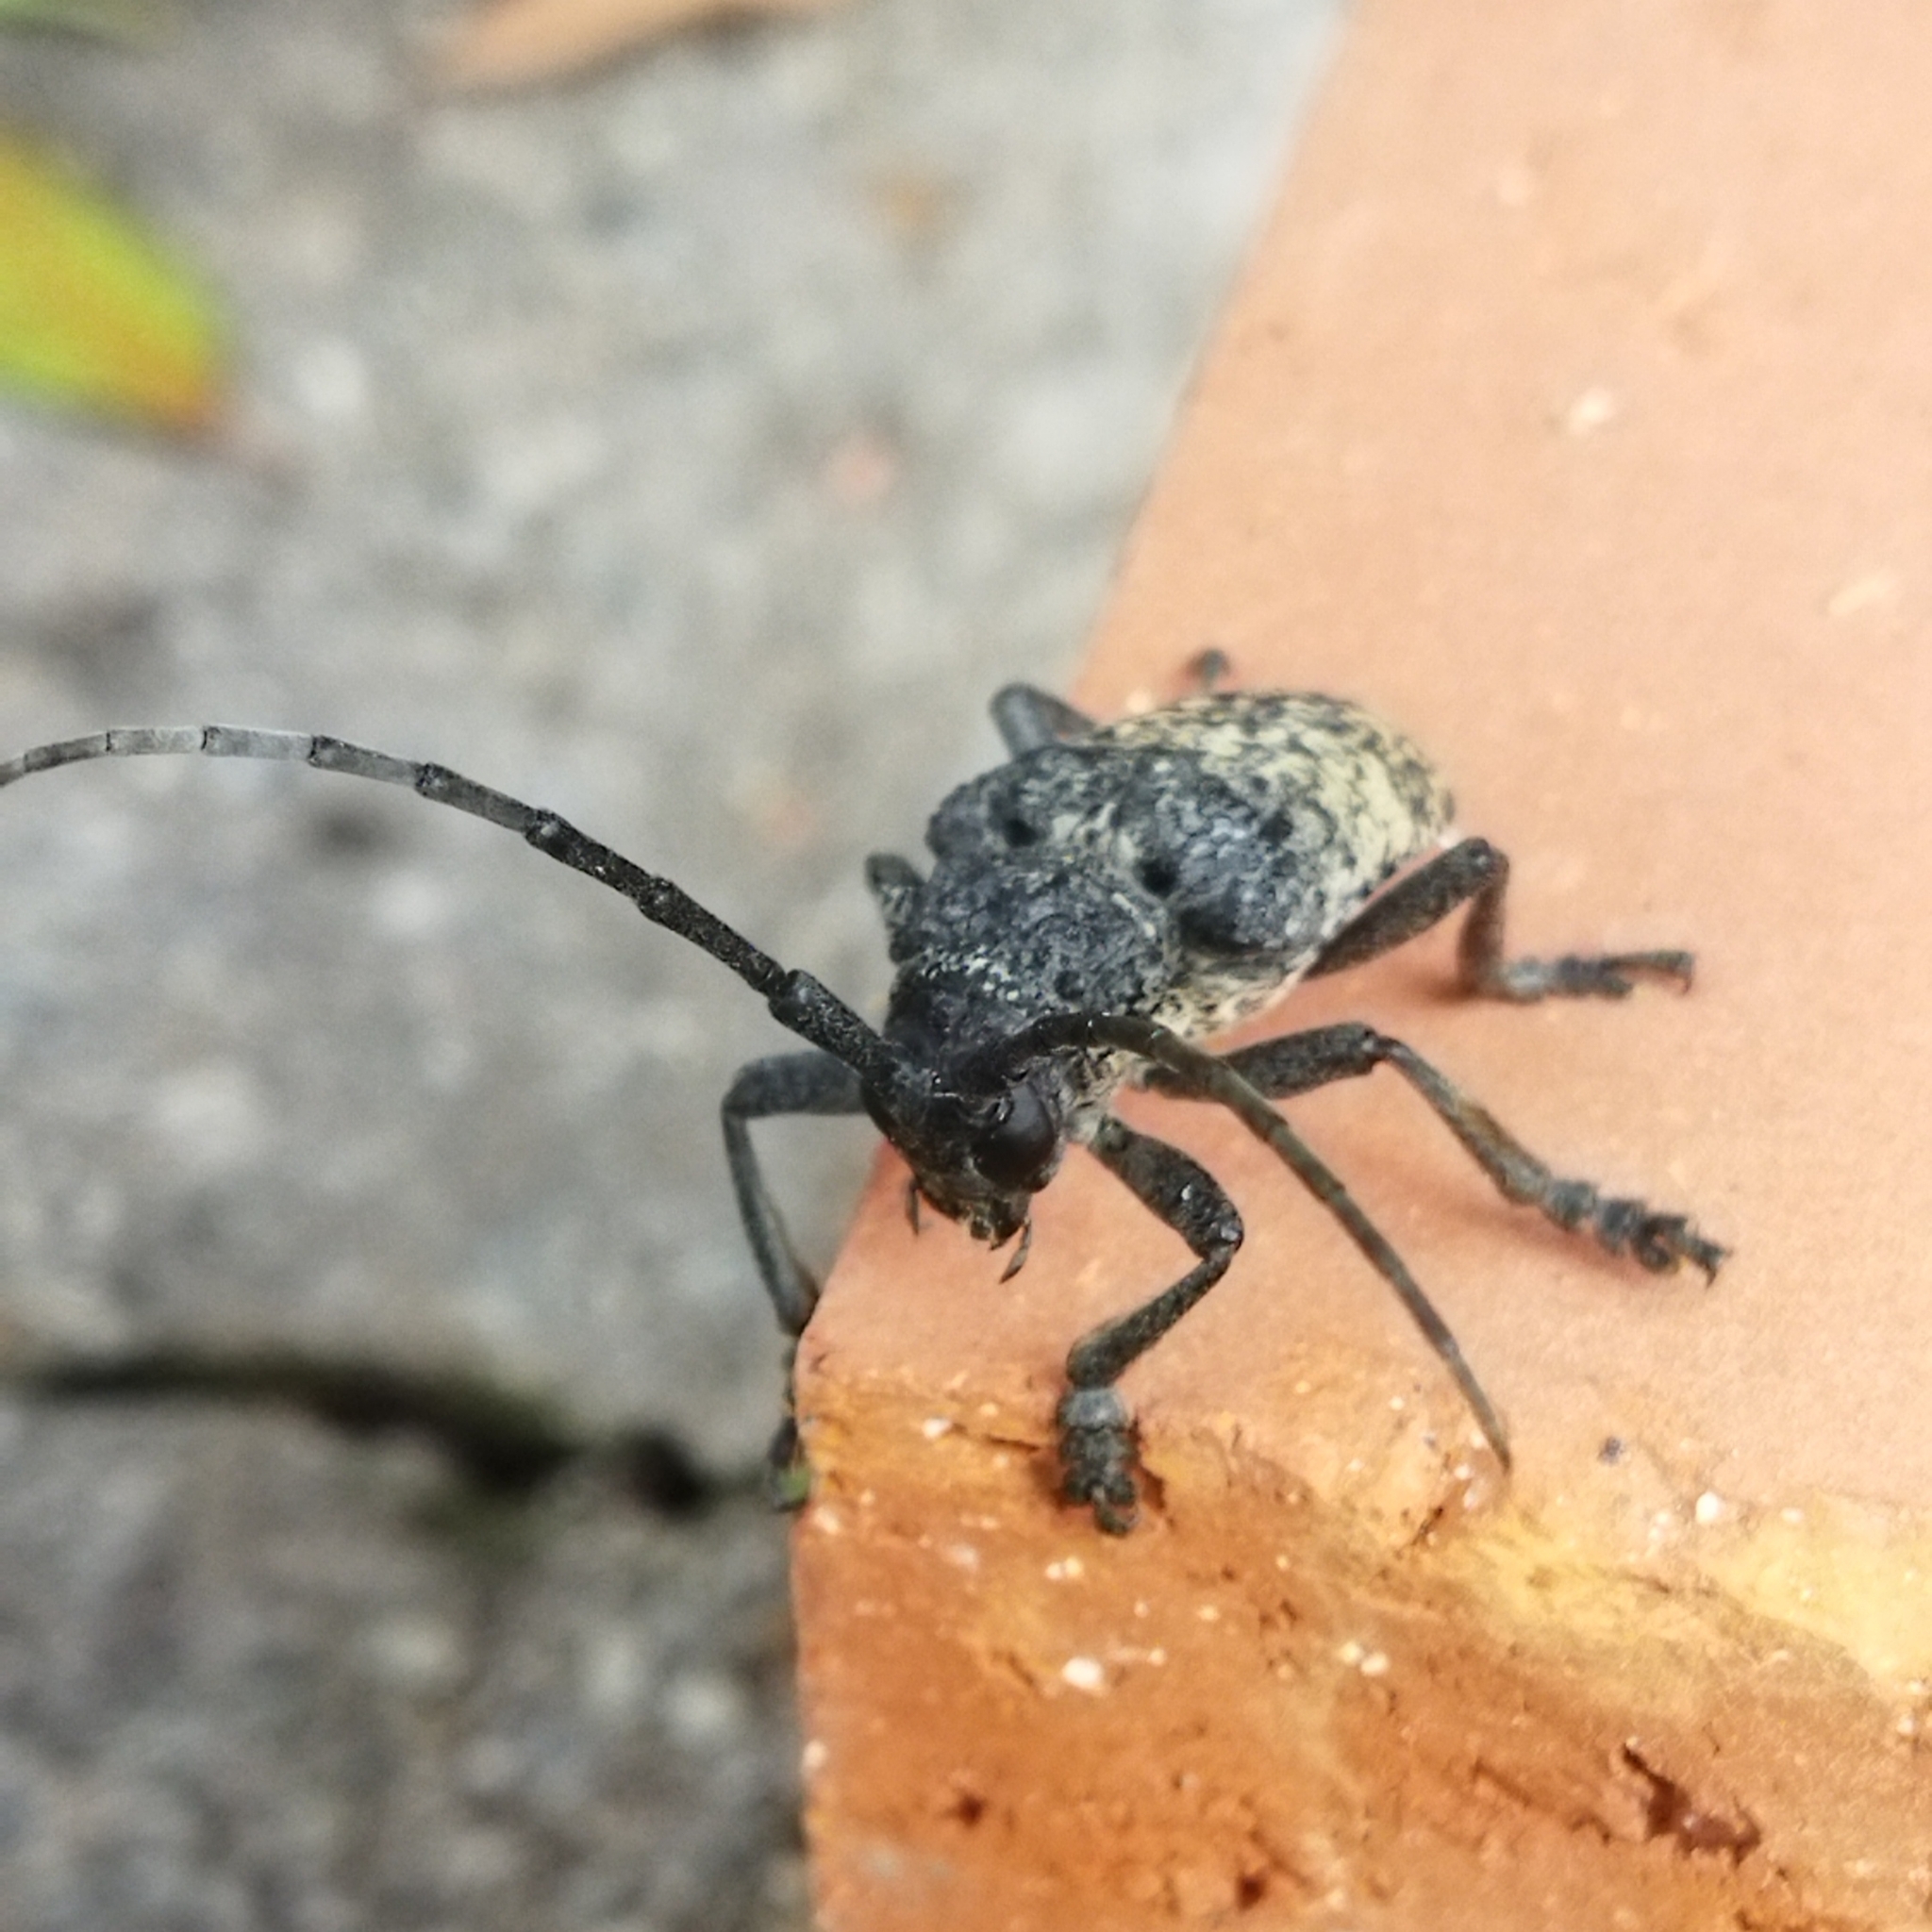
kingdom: Animalia
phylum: Arthropoda
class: Insecta
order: Coleoptera
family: Cerambycidae
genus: Phryneta
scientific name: Phryneta spinator
